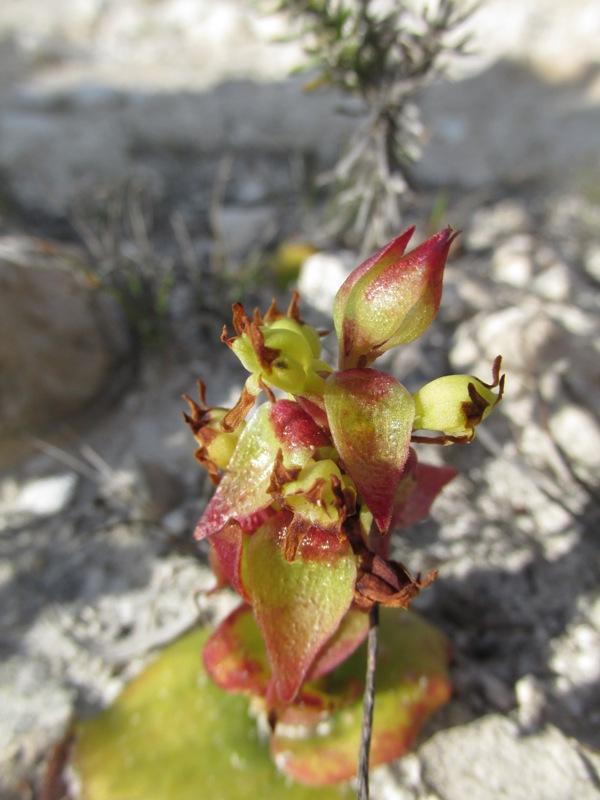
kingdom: Plantae
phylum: Tracheophyta
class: Liliopsida
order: Asparagales
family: Orchidaceae
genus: Satyrium
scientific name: Satyrium emarcidum
